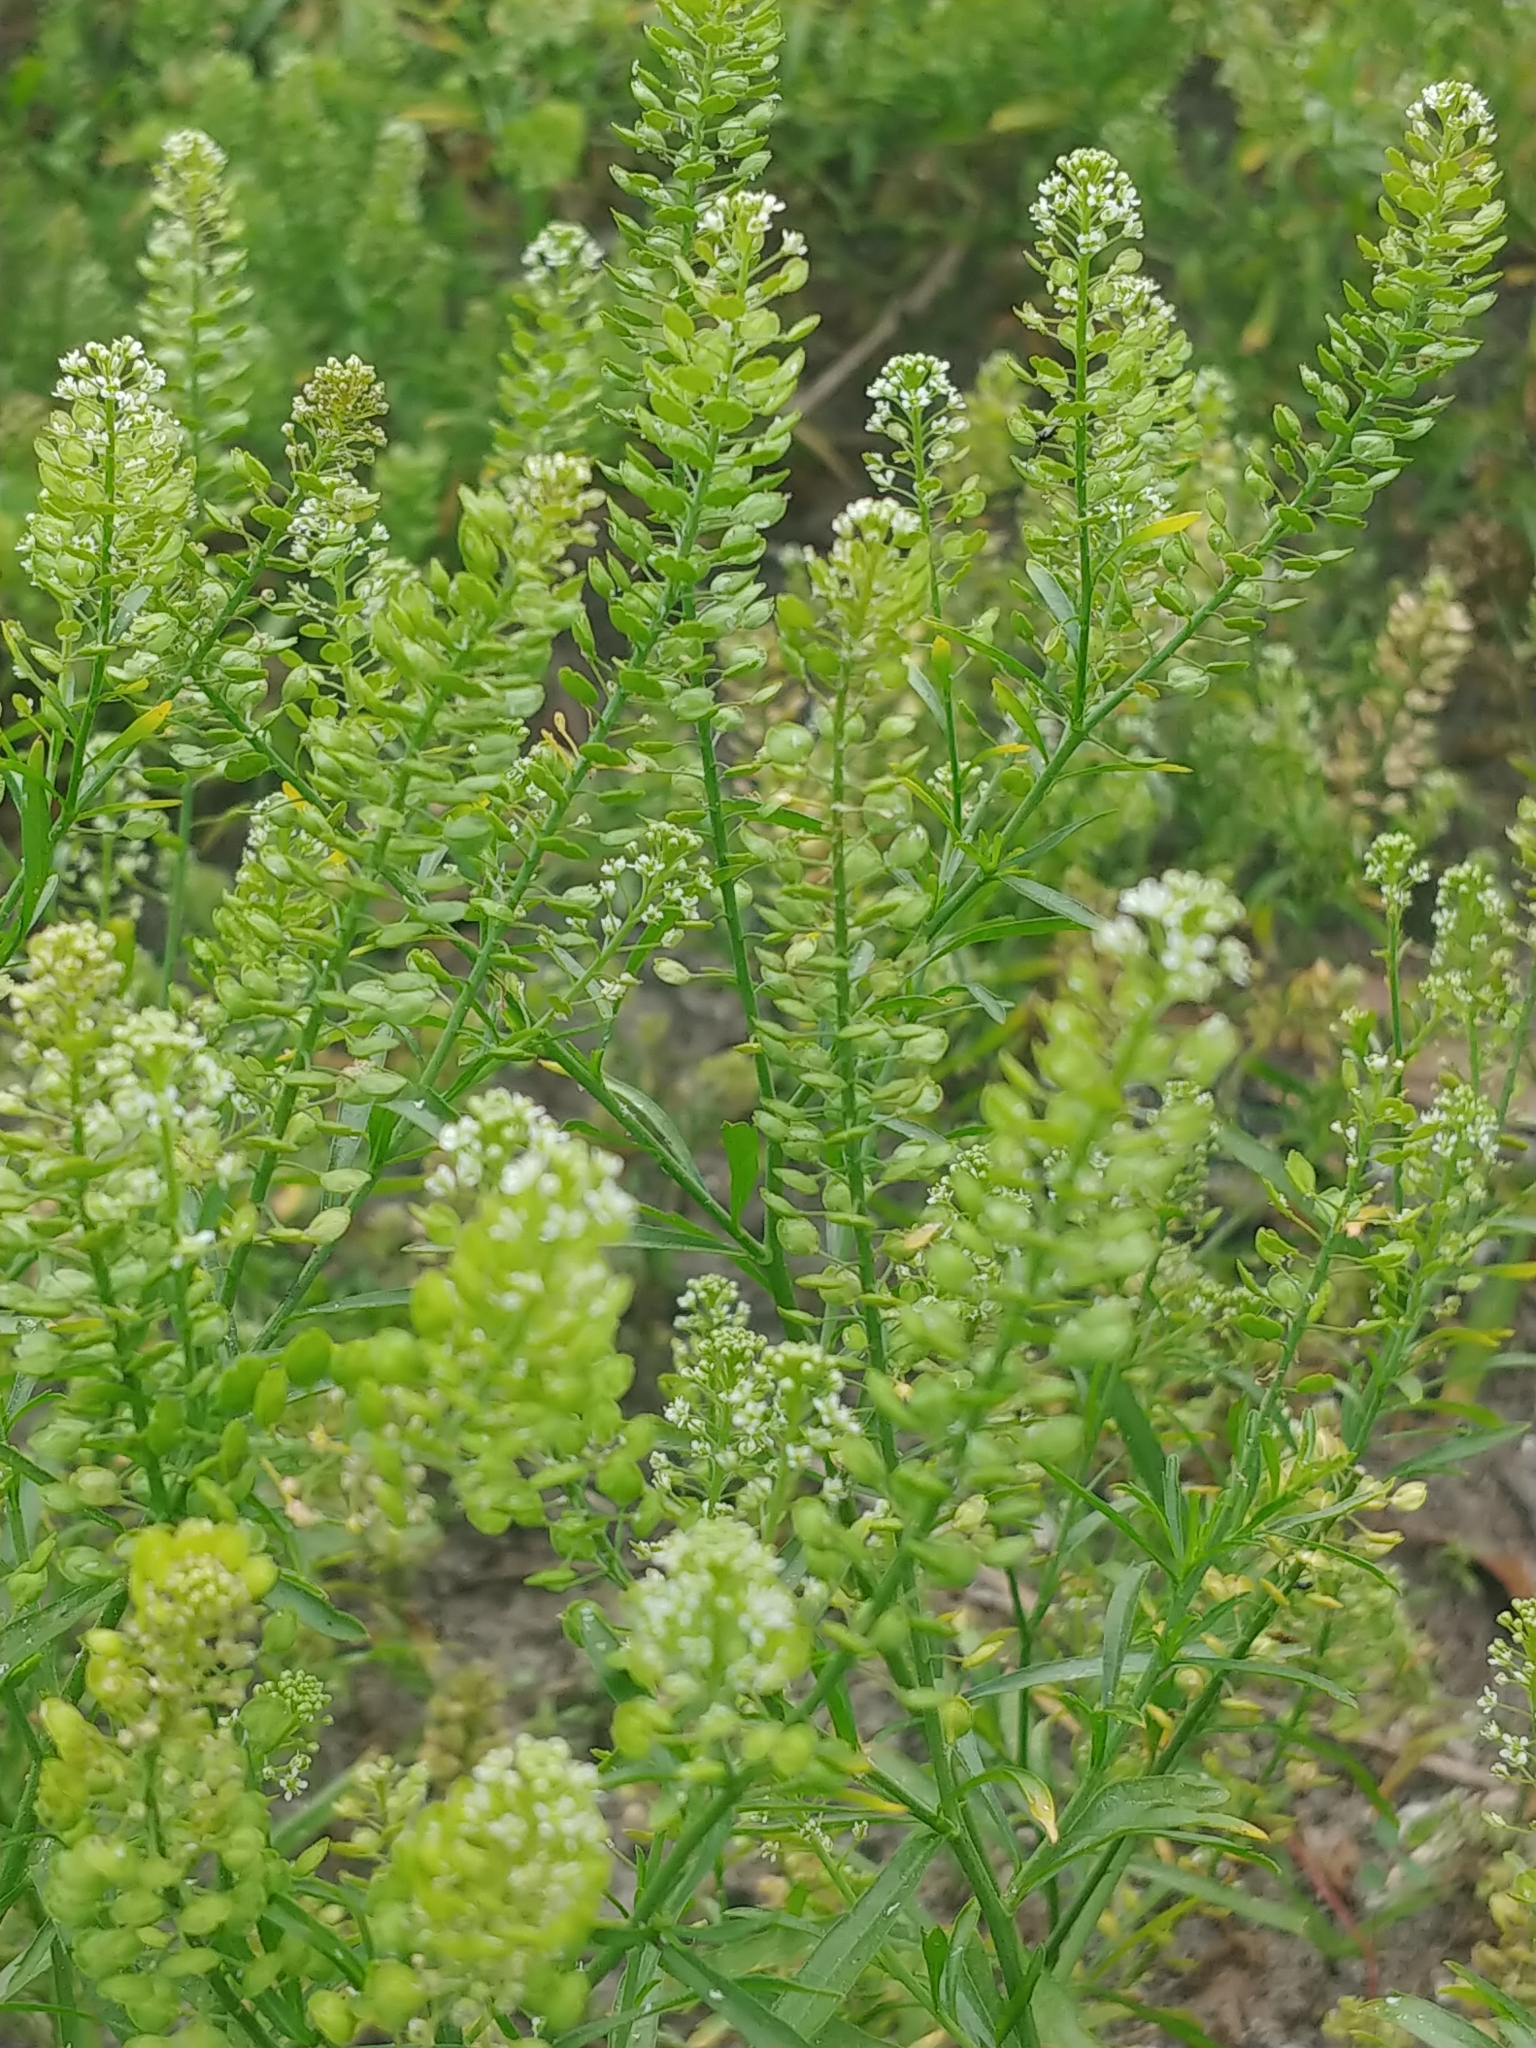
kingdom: Plantae
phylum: Tracheophyta
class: Magnoliopsida
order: Brassicales
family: Brassicaceae
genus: Lepidium
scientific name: Lepidium virginicum
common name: Least pepperwort
